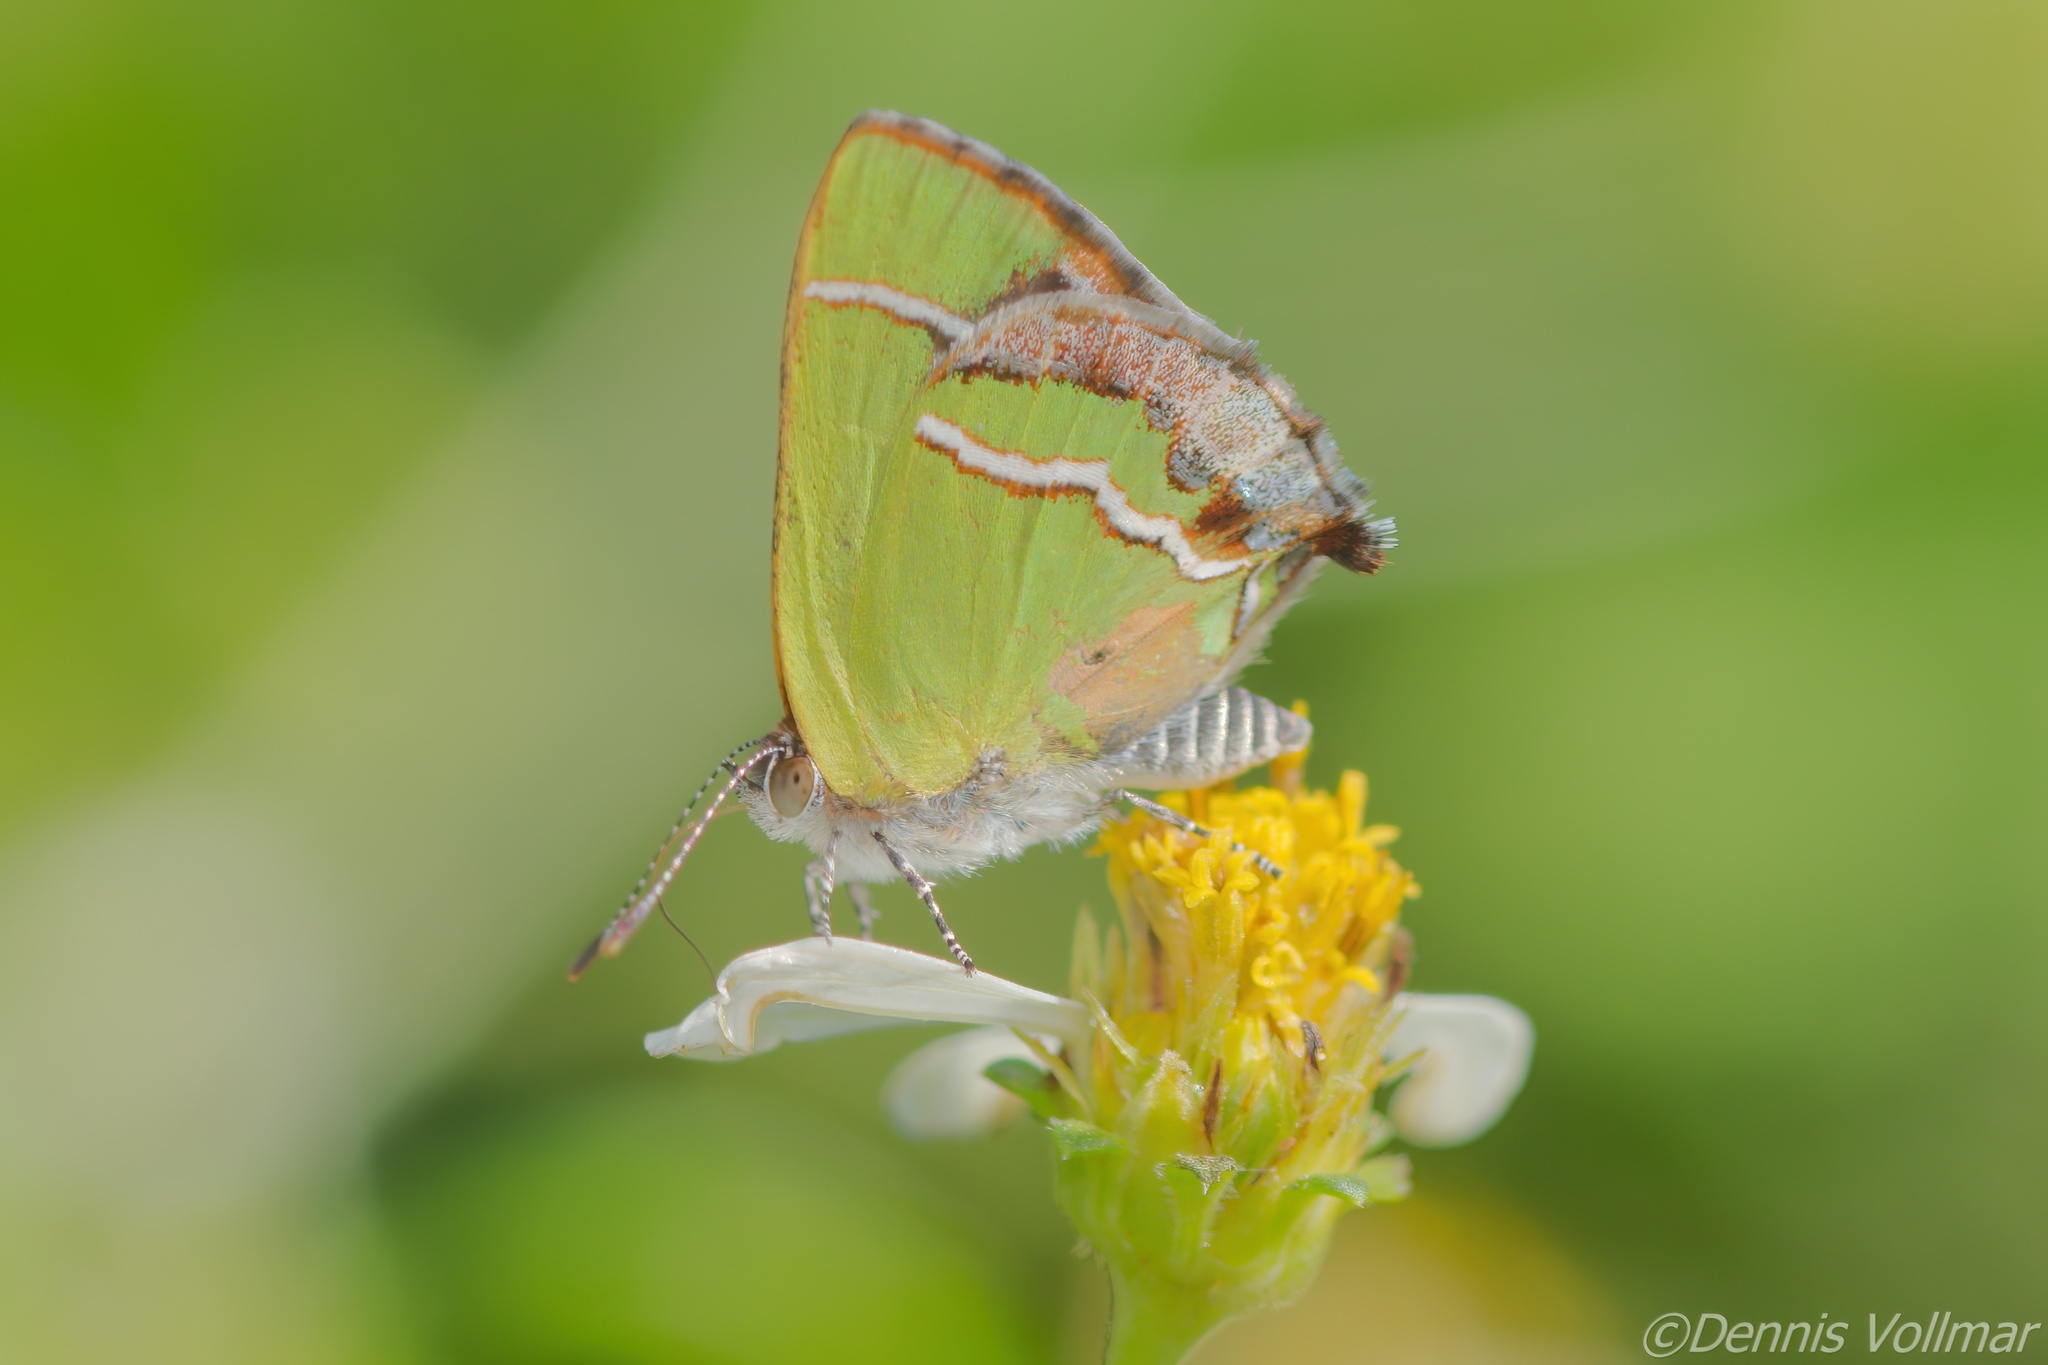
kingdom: Animalia
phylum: Arthropoda
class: Insecta
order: Lepidoptera
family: Lycaenidae
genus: Chlorostrymon
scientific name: Chlorostrymon simaethis
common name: Silver-banded hairstreak
